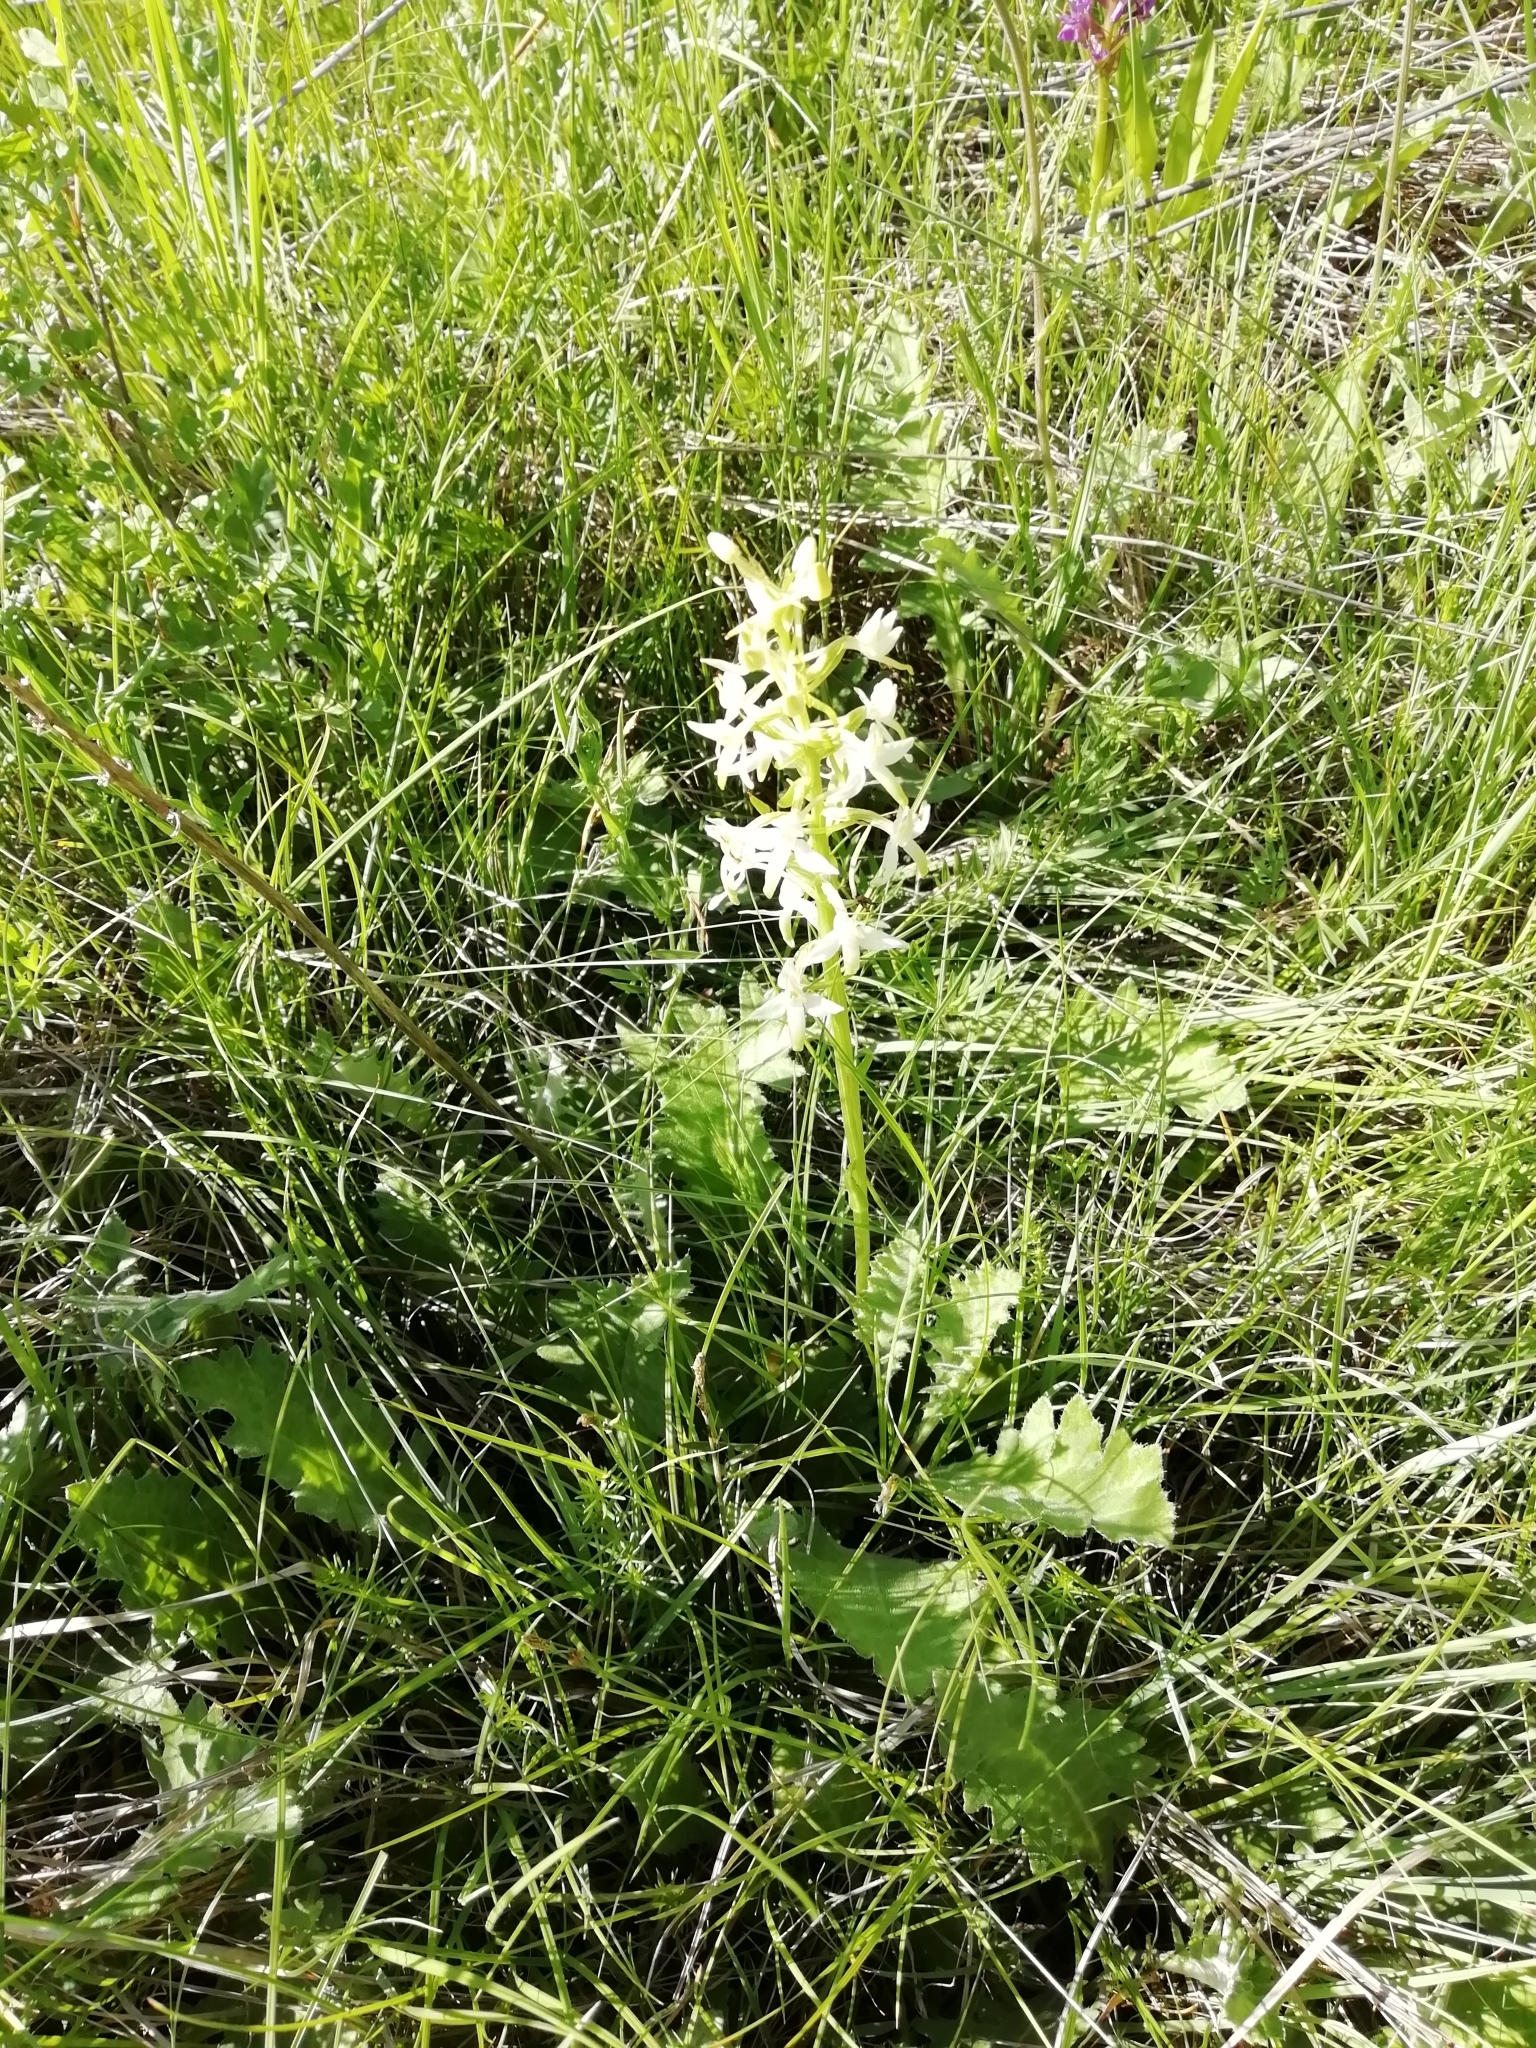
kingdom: Plantae
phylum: Tracheophyta
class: Liliopsida
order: Asparagales
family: Orchidaceae
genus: Platanthera
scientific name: Platanthera bifolia
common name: Lesser butterfly-orchid
